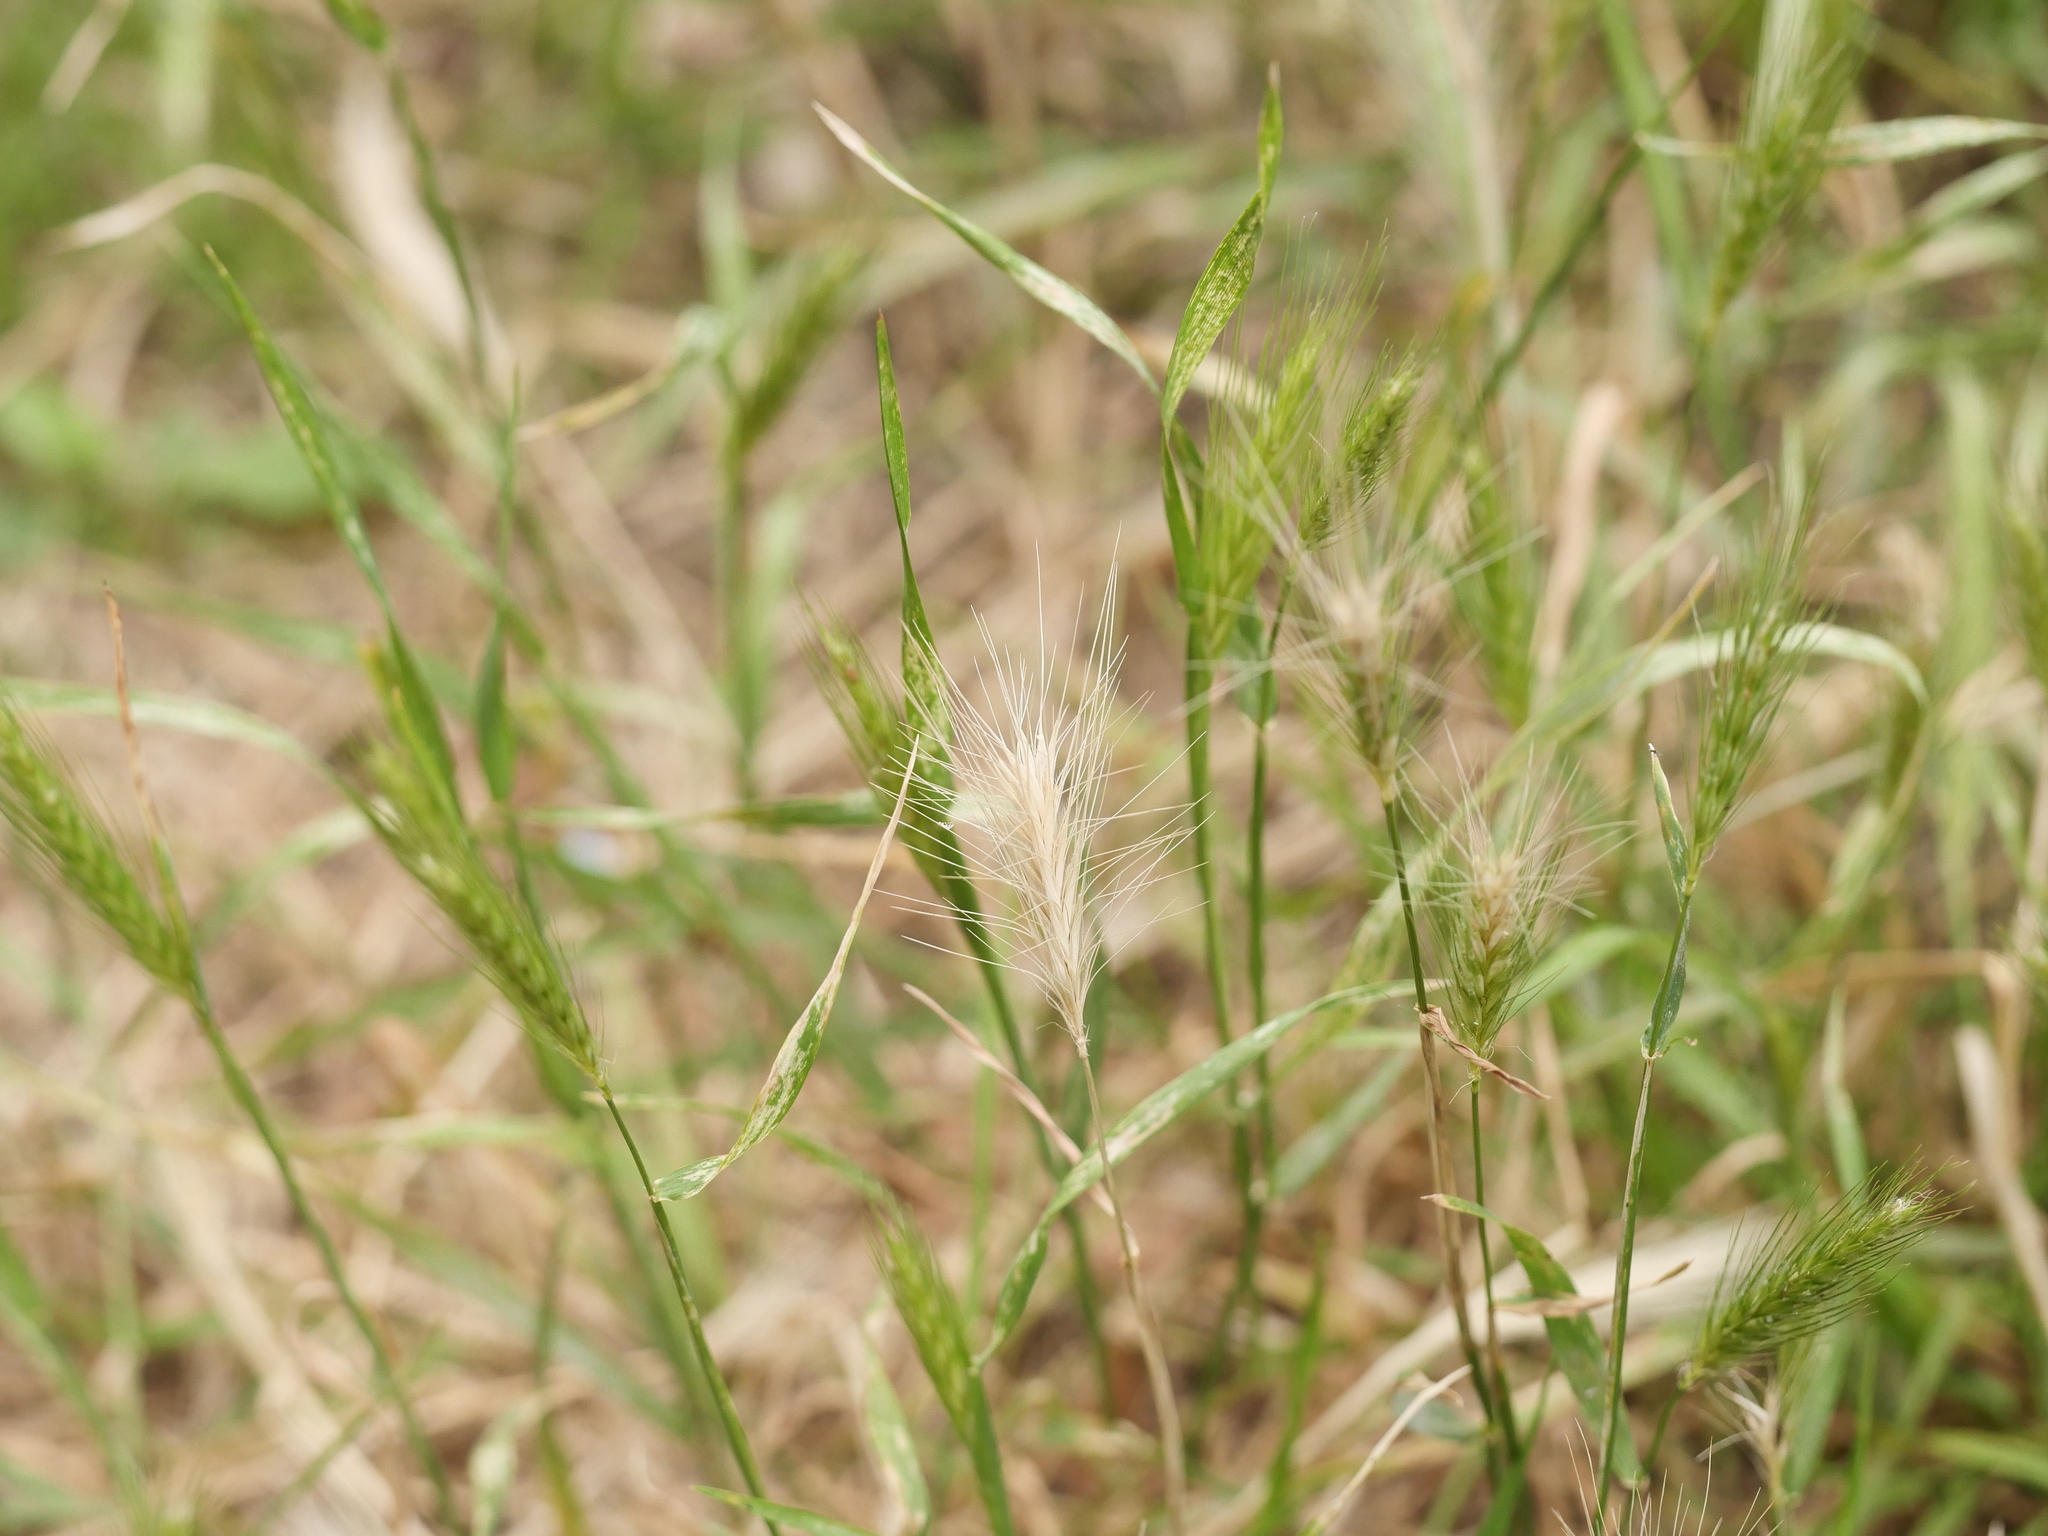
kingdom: Plantae
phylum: Tracheophyta
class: Liliopsida
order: Poales
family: Poaceae
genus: Hordeum
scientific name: Hordeum murinum
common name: Wall barley
